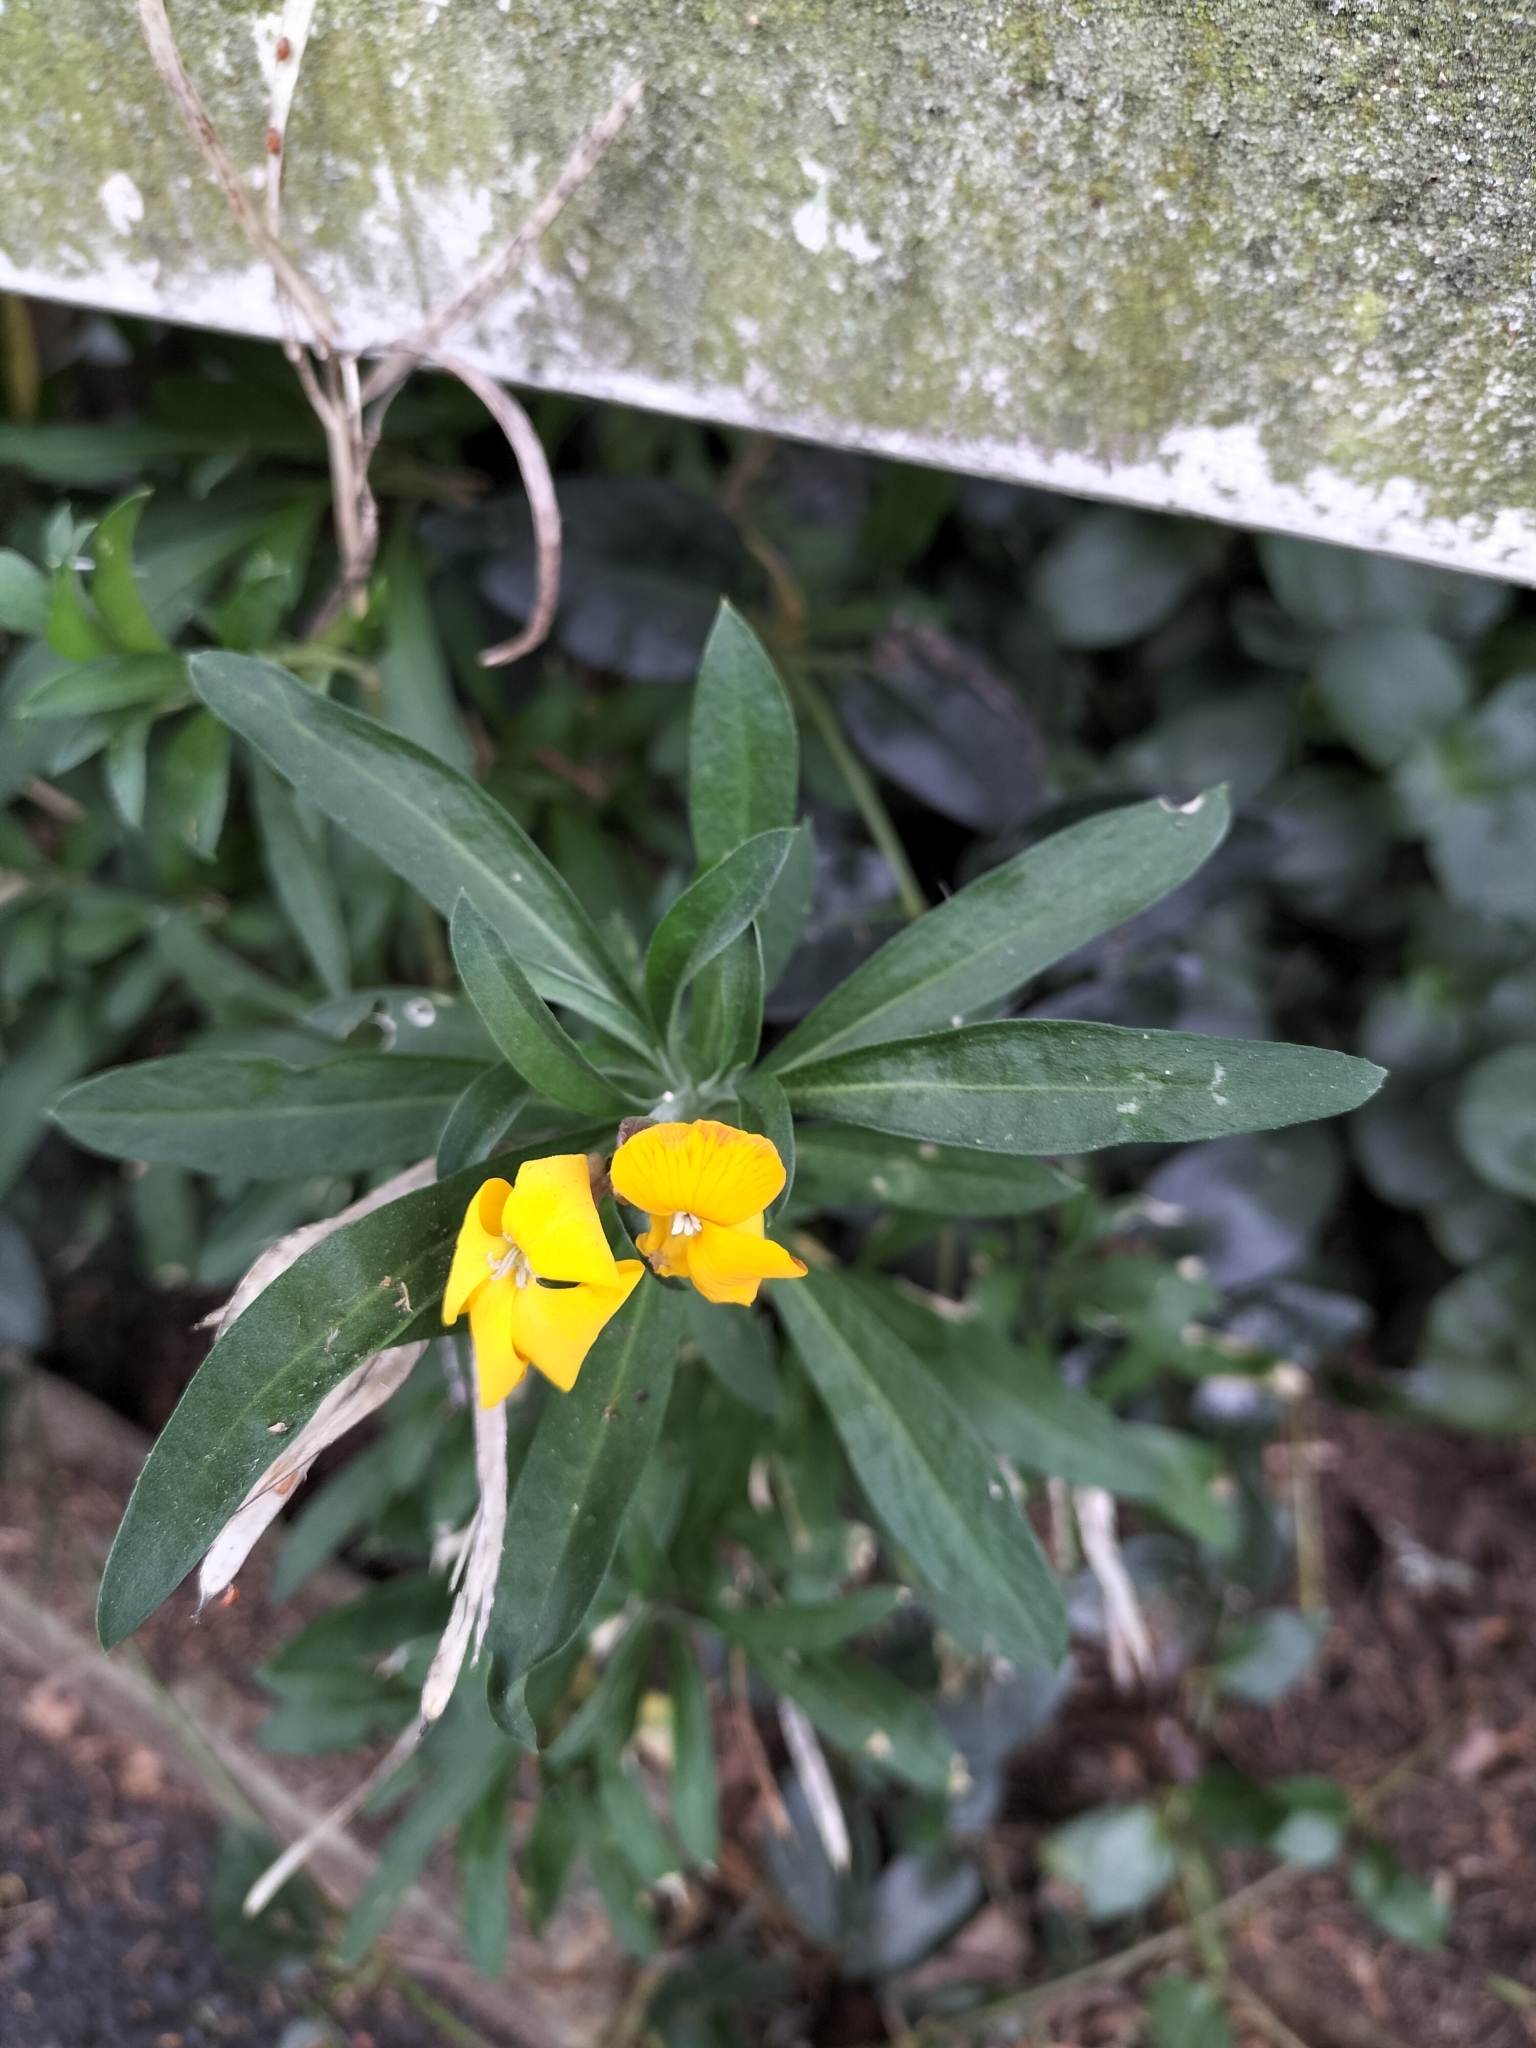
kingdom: Plantae
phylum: Tracheophyta
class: Magnoliopsida
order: Brassicales
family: Brassicaceae
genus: Erysimum
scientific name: Erysimum cheiri
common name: Wallflower
